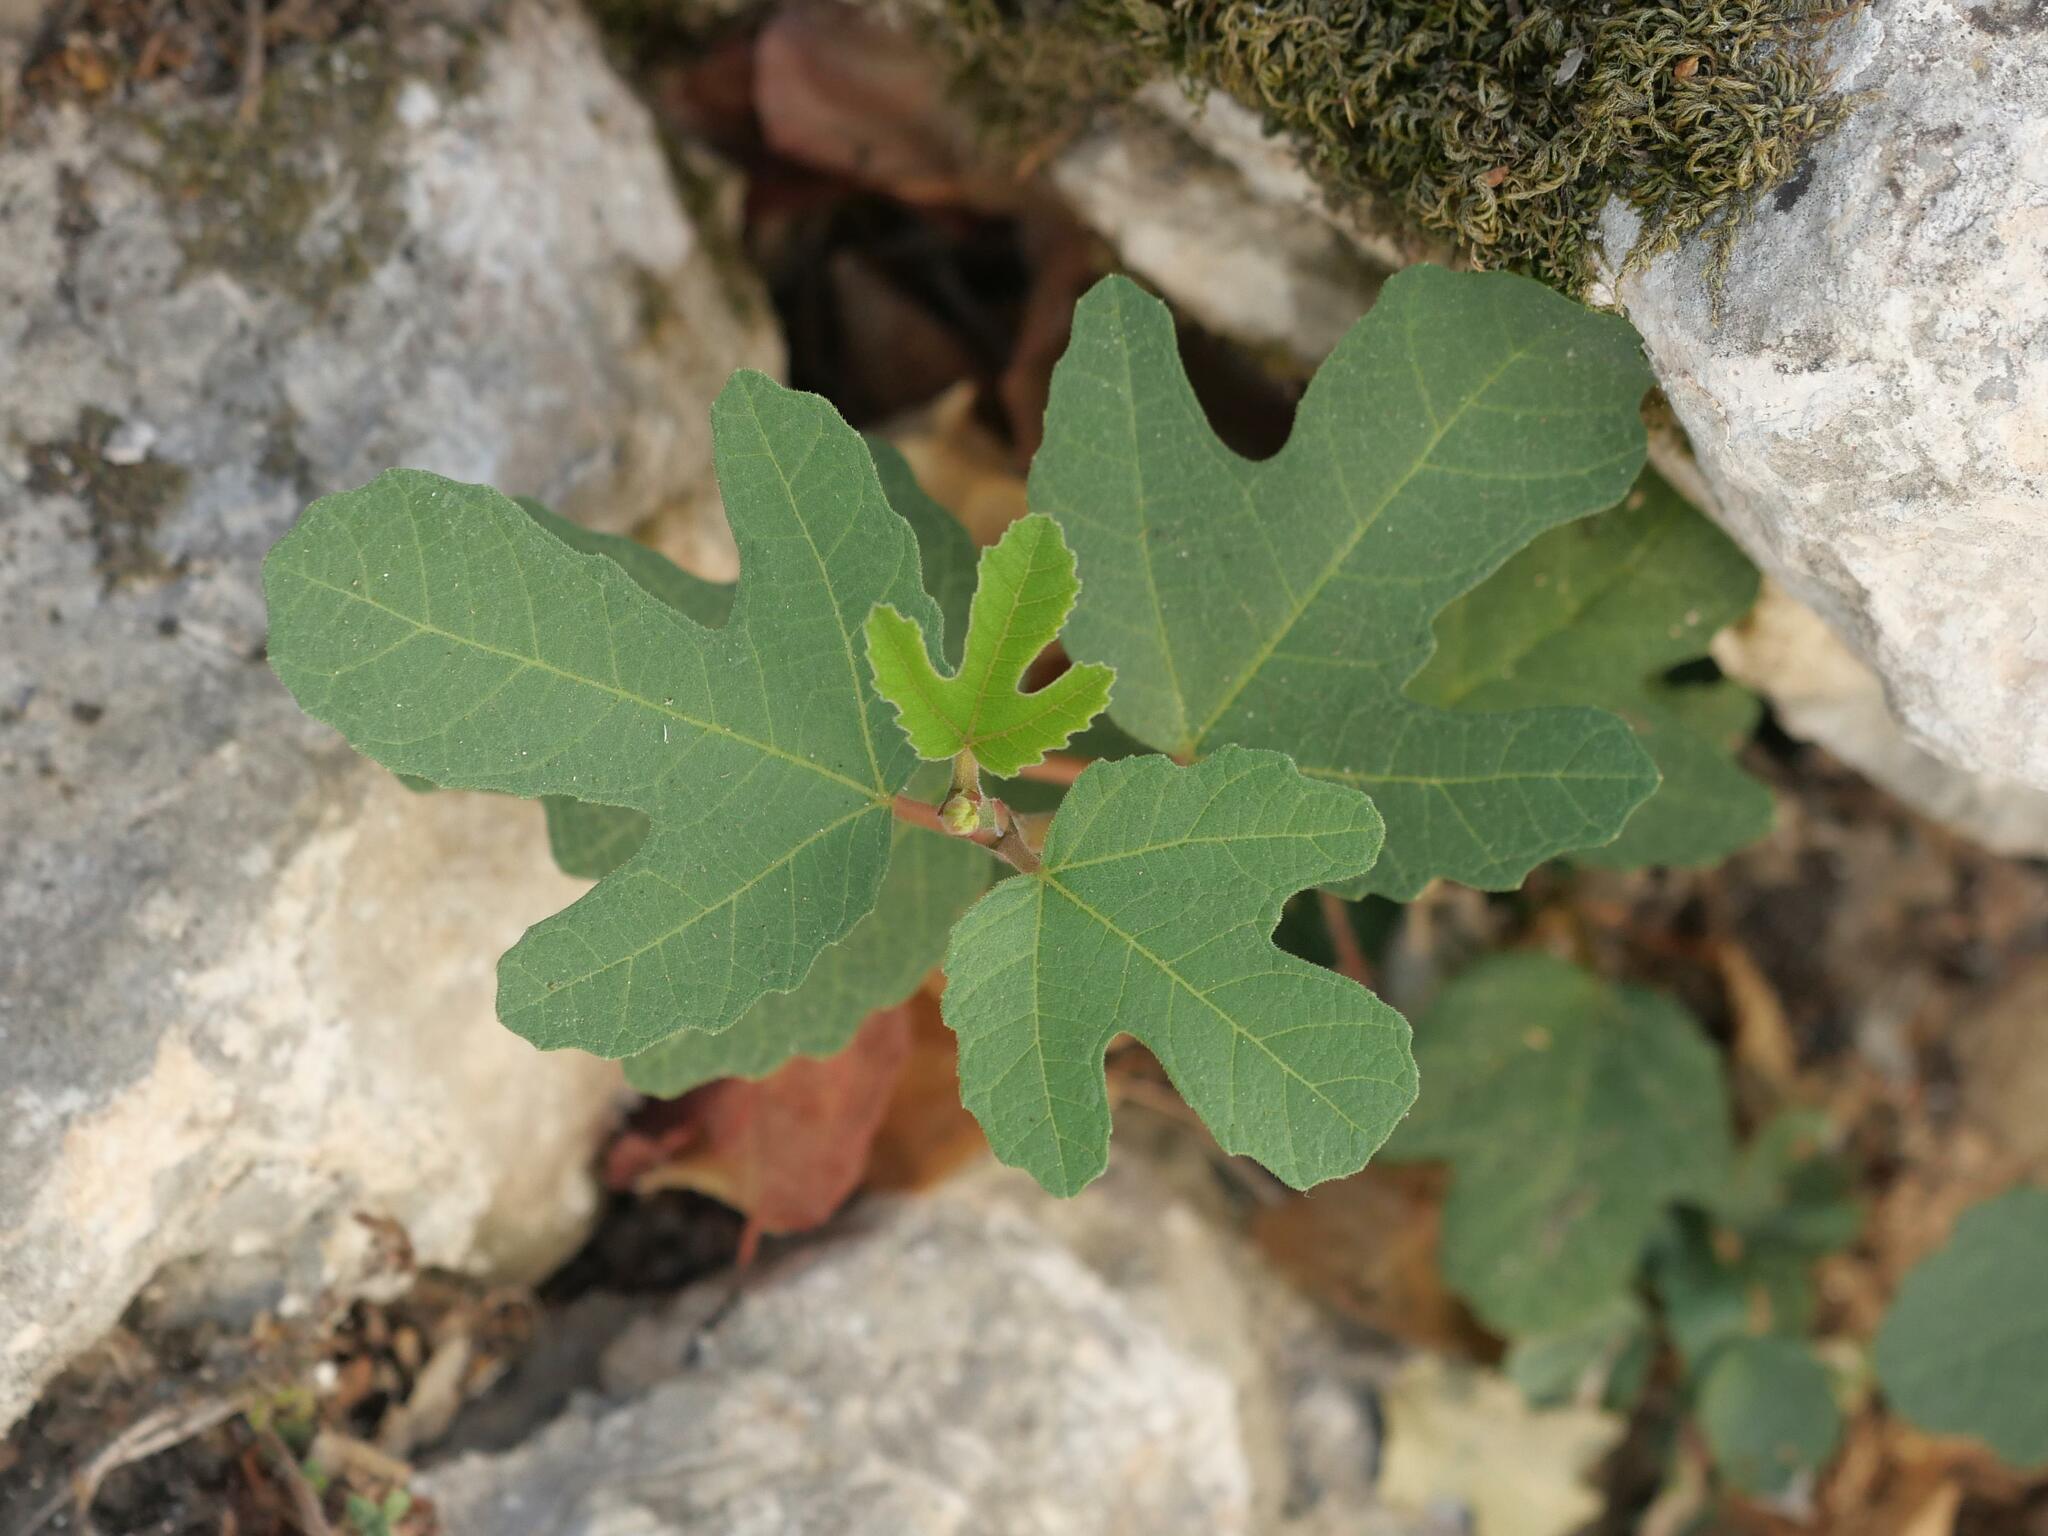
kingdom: Plantae
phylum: Tracheophyta
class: Magnoliopsida
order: Rosales
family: Moraceae
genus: Ficus
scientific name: Ficus carica
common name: Fig
